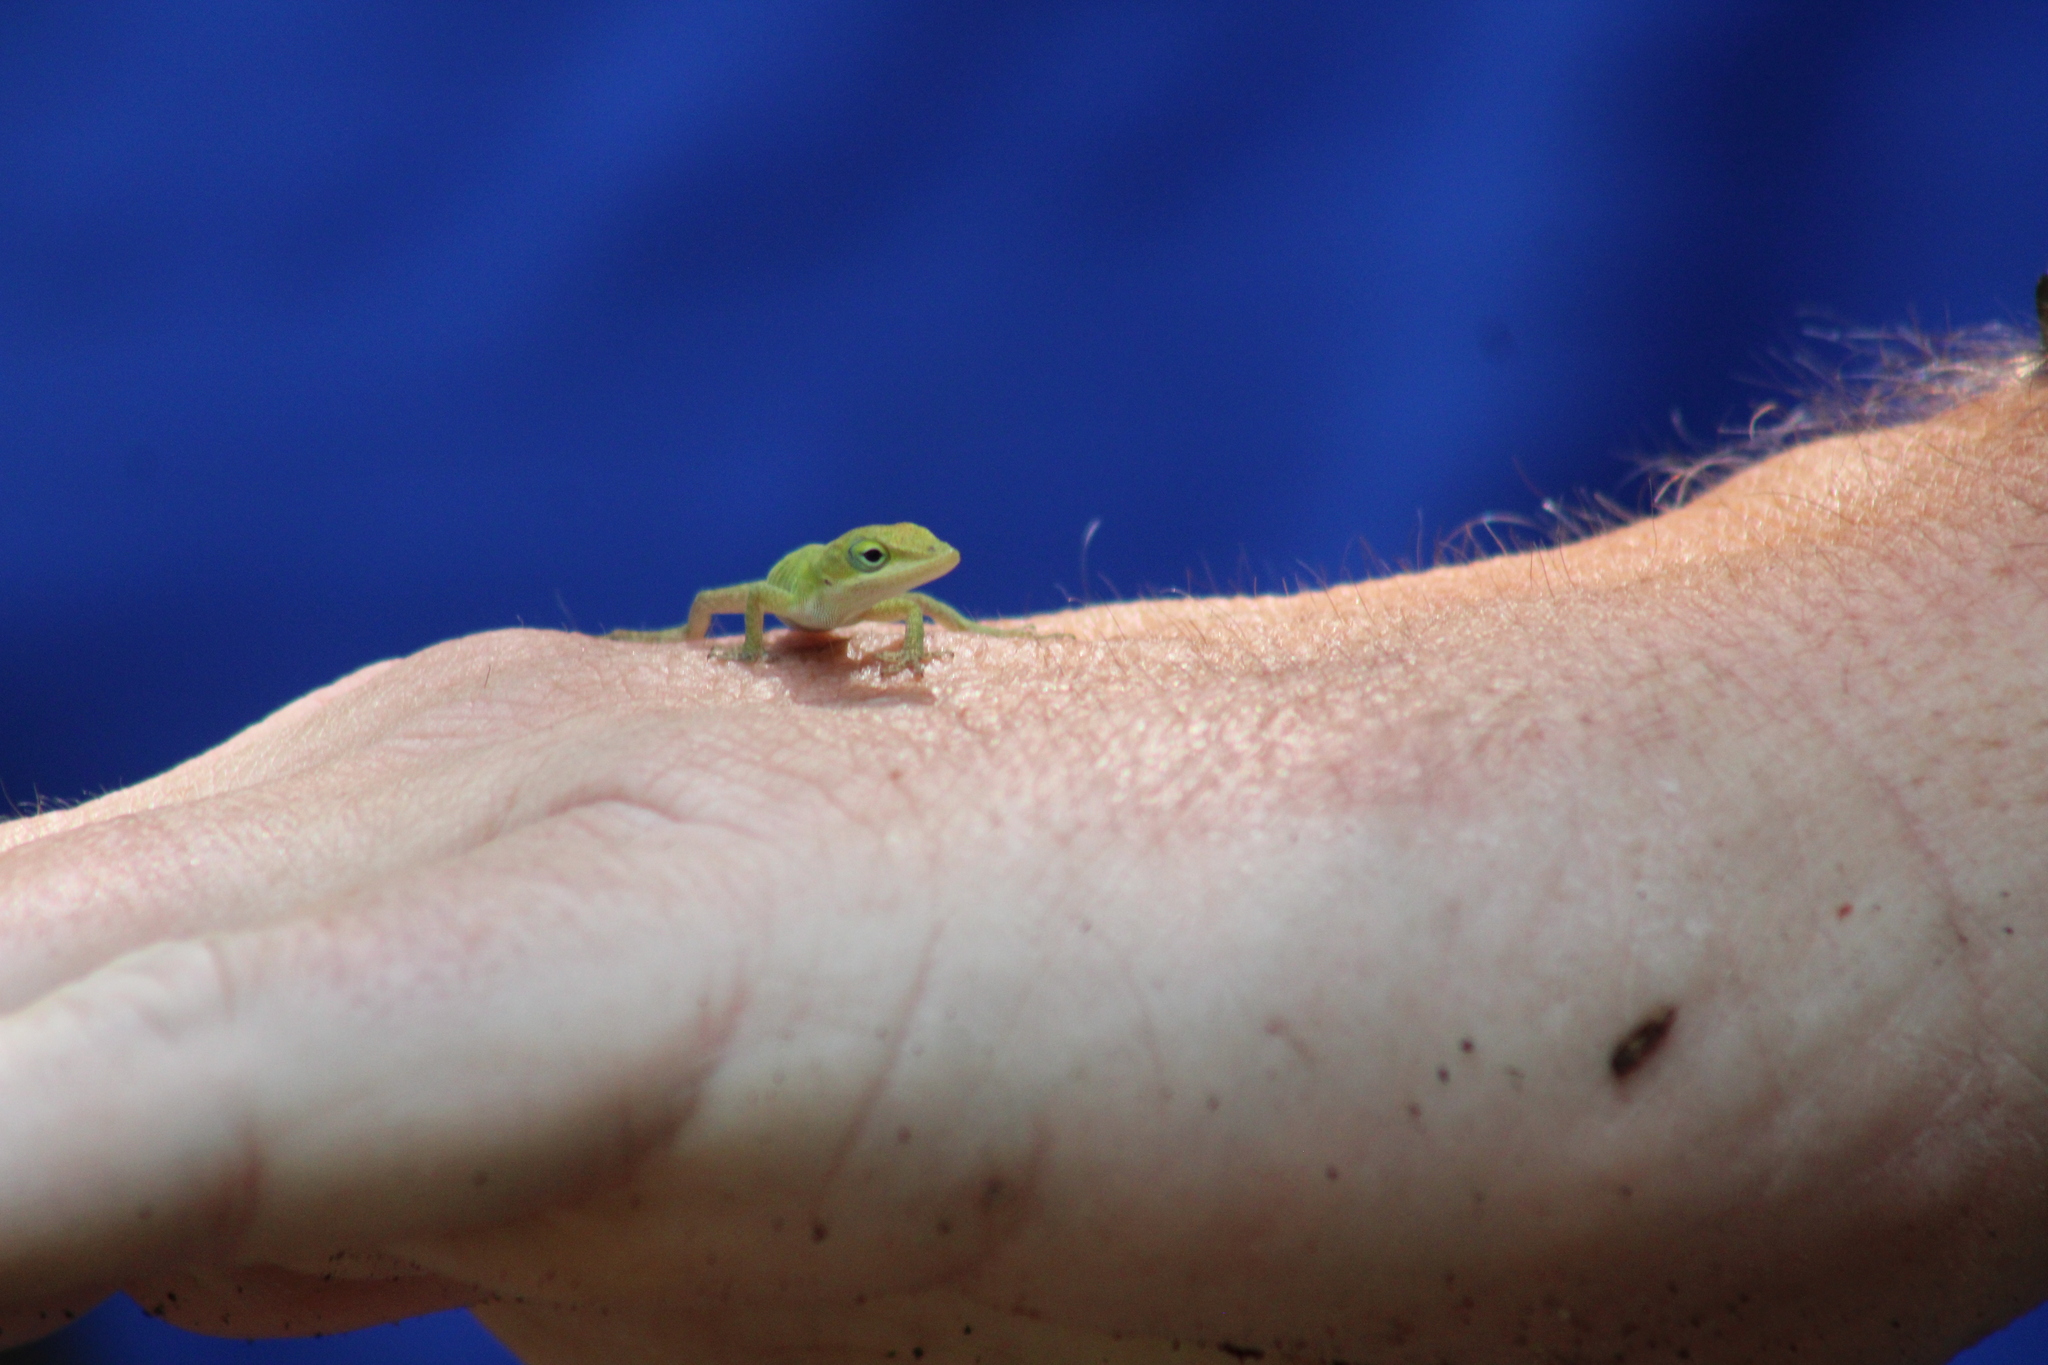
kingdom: Animalia
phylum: Chordata
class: Squamata
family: Dactyloidae
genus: Anolis
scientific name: Anolis carolinensis
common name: Green anole
